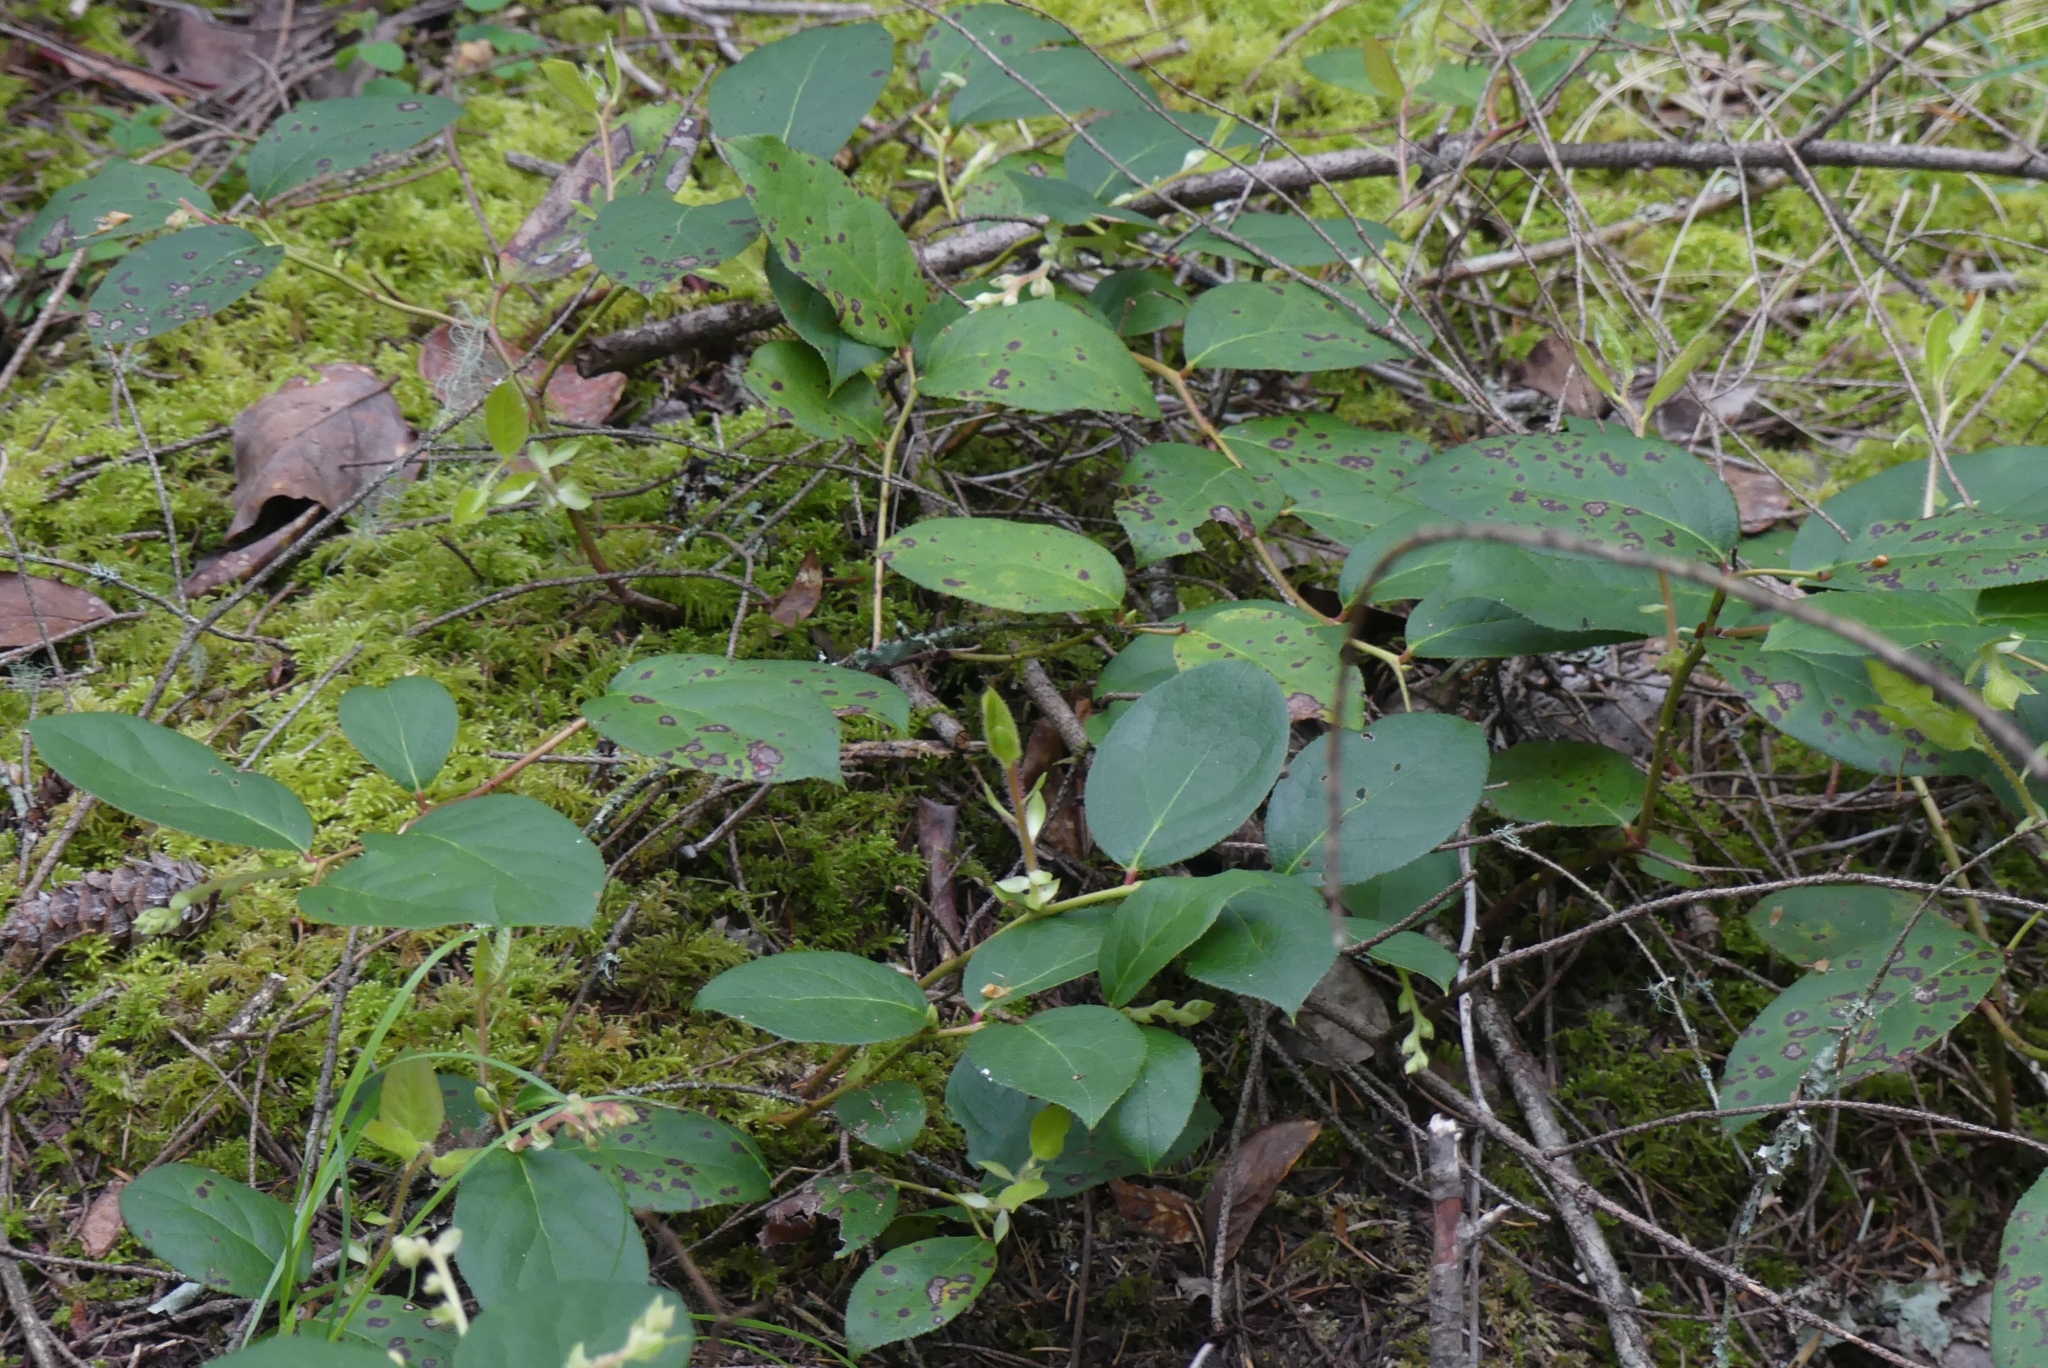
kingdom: Plantae
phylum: Tracheophyta
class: Magnoliopsida
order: Ericales
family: Ericaceae
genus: Gaultheria
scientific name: Gaultheria shallon
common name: Shallon
